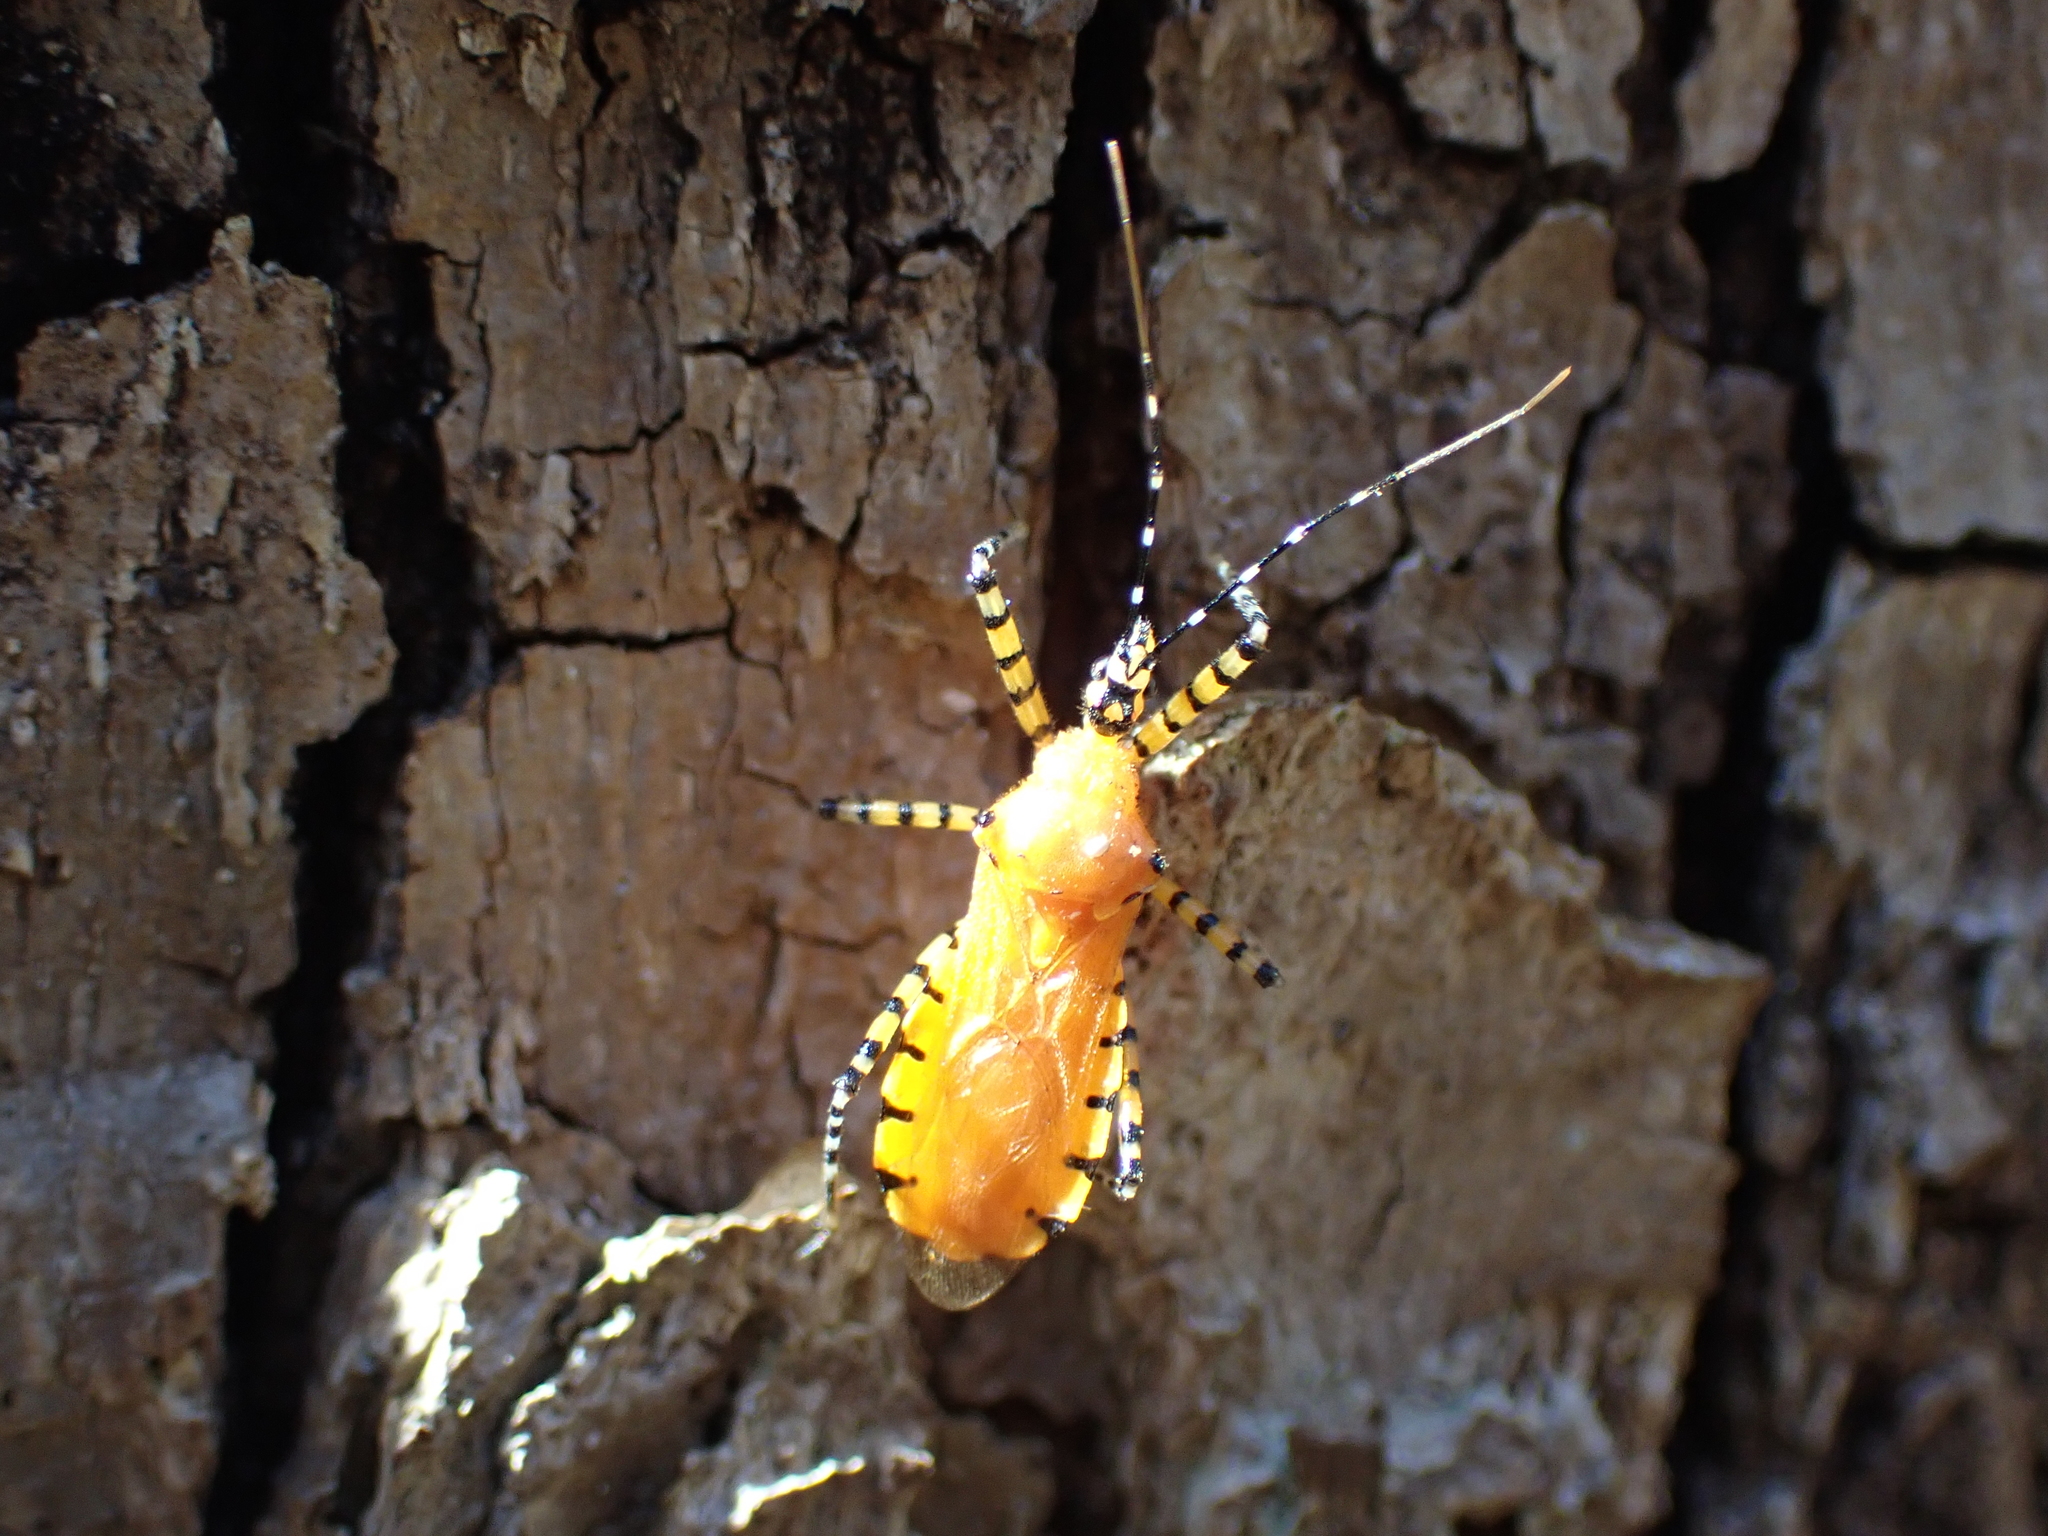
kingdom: Animalia
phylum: Arthropoda
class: Insecta
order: Hemiptera
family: Reduviidae
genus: Pselliopus
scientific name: Pselliopus barberi
